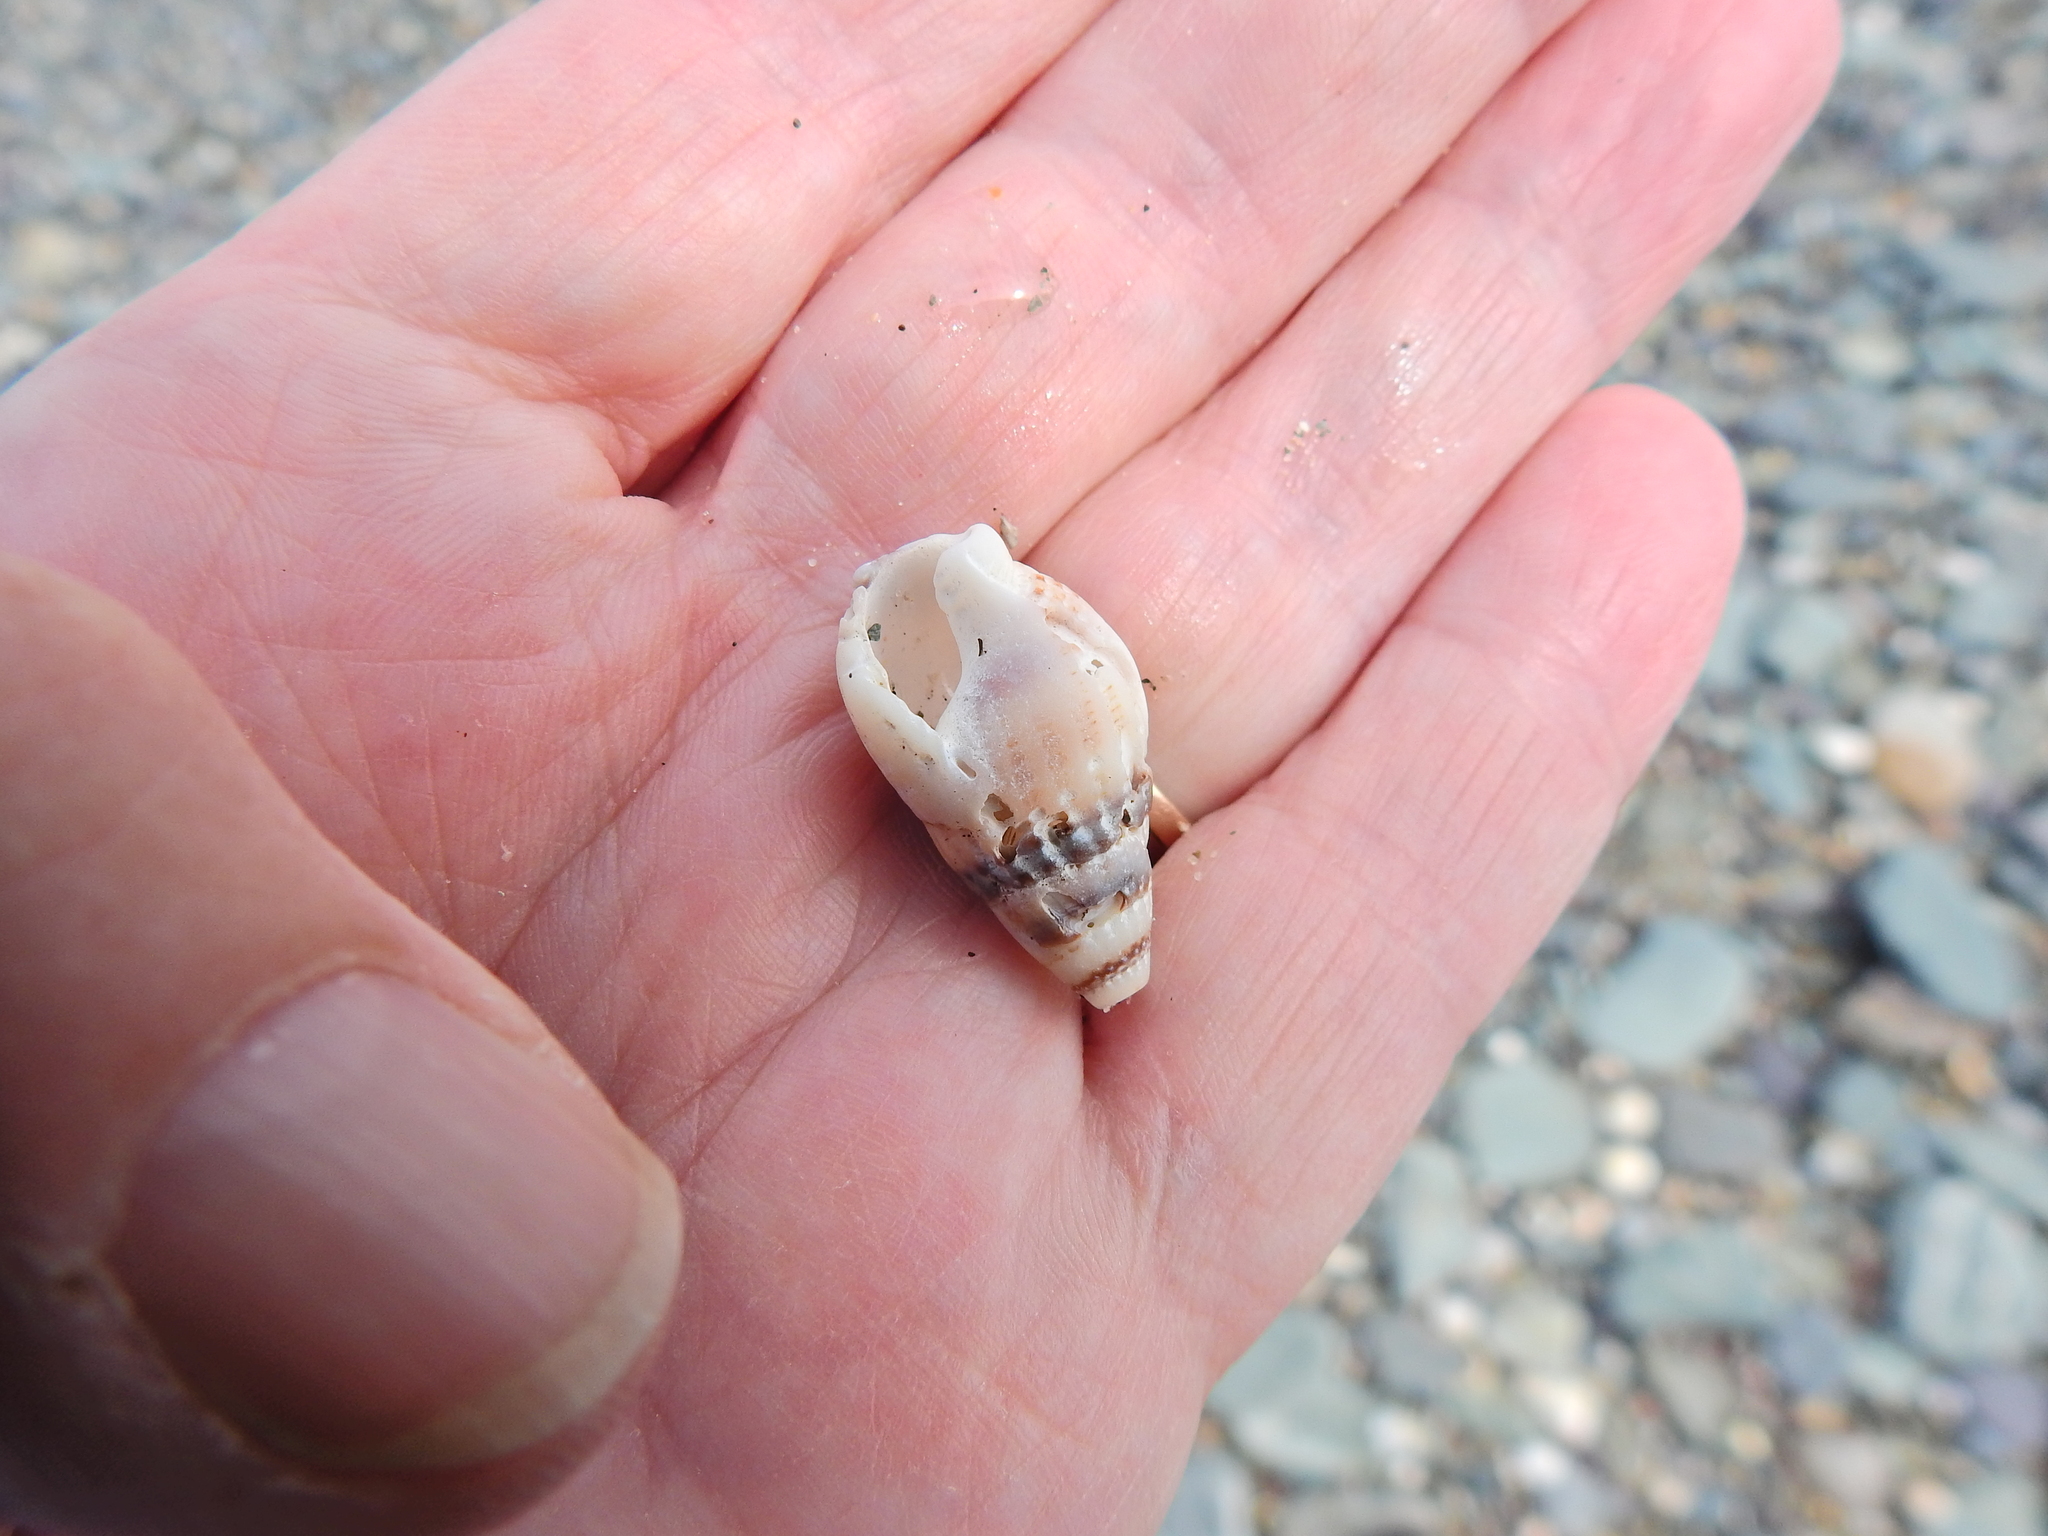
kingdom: Animalia
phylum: Mollusca
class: Gastropoda
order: Neogastropoda
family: Nassariidae
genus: Tritia
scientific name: Tritia reticulata
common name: Netted dog whelk
